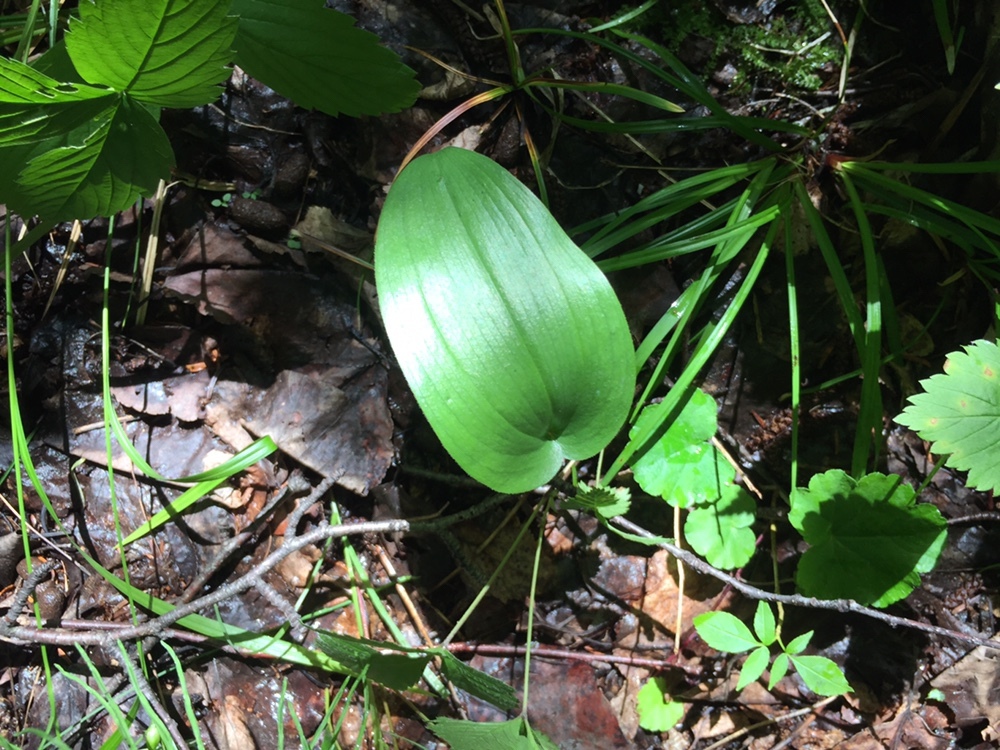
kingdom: Plantae
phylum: Tracheophyta
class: Liliopsida
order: Asparagales
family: Asparagaceae
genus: Maianthemum
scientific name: Maianthemum canadense
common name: False lily-of-the-valley
